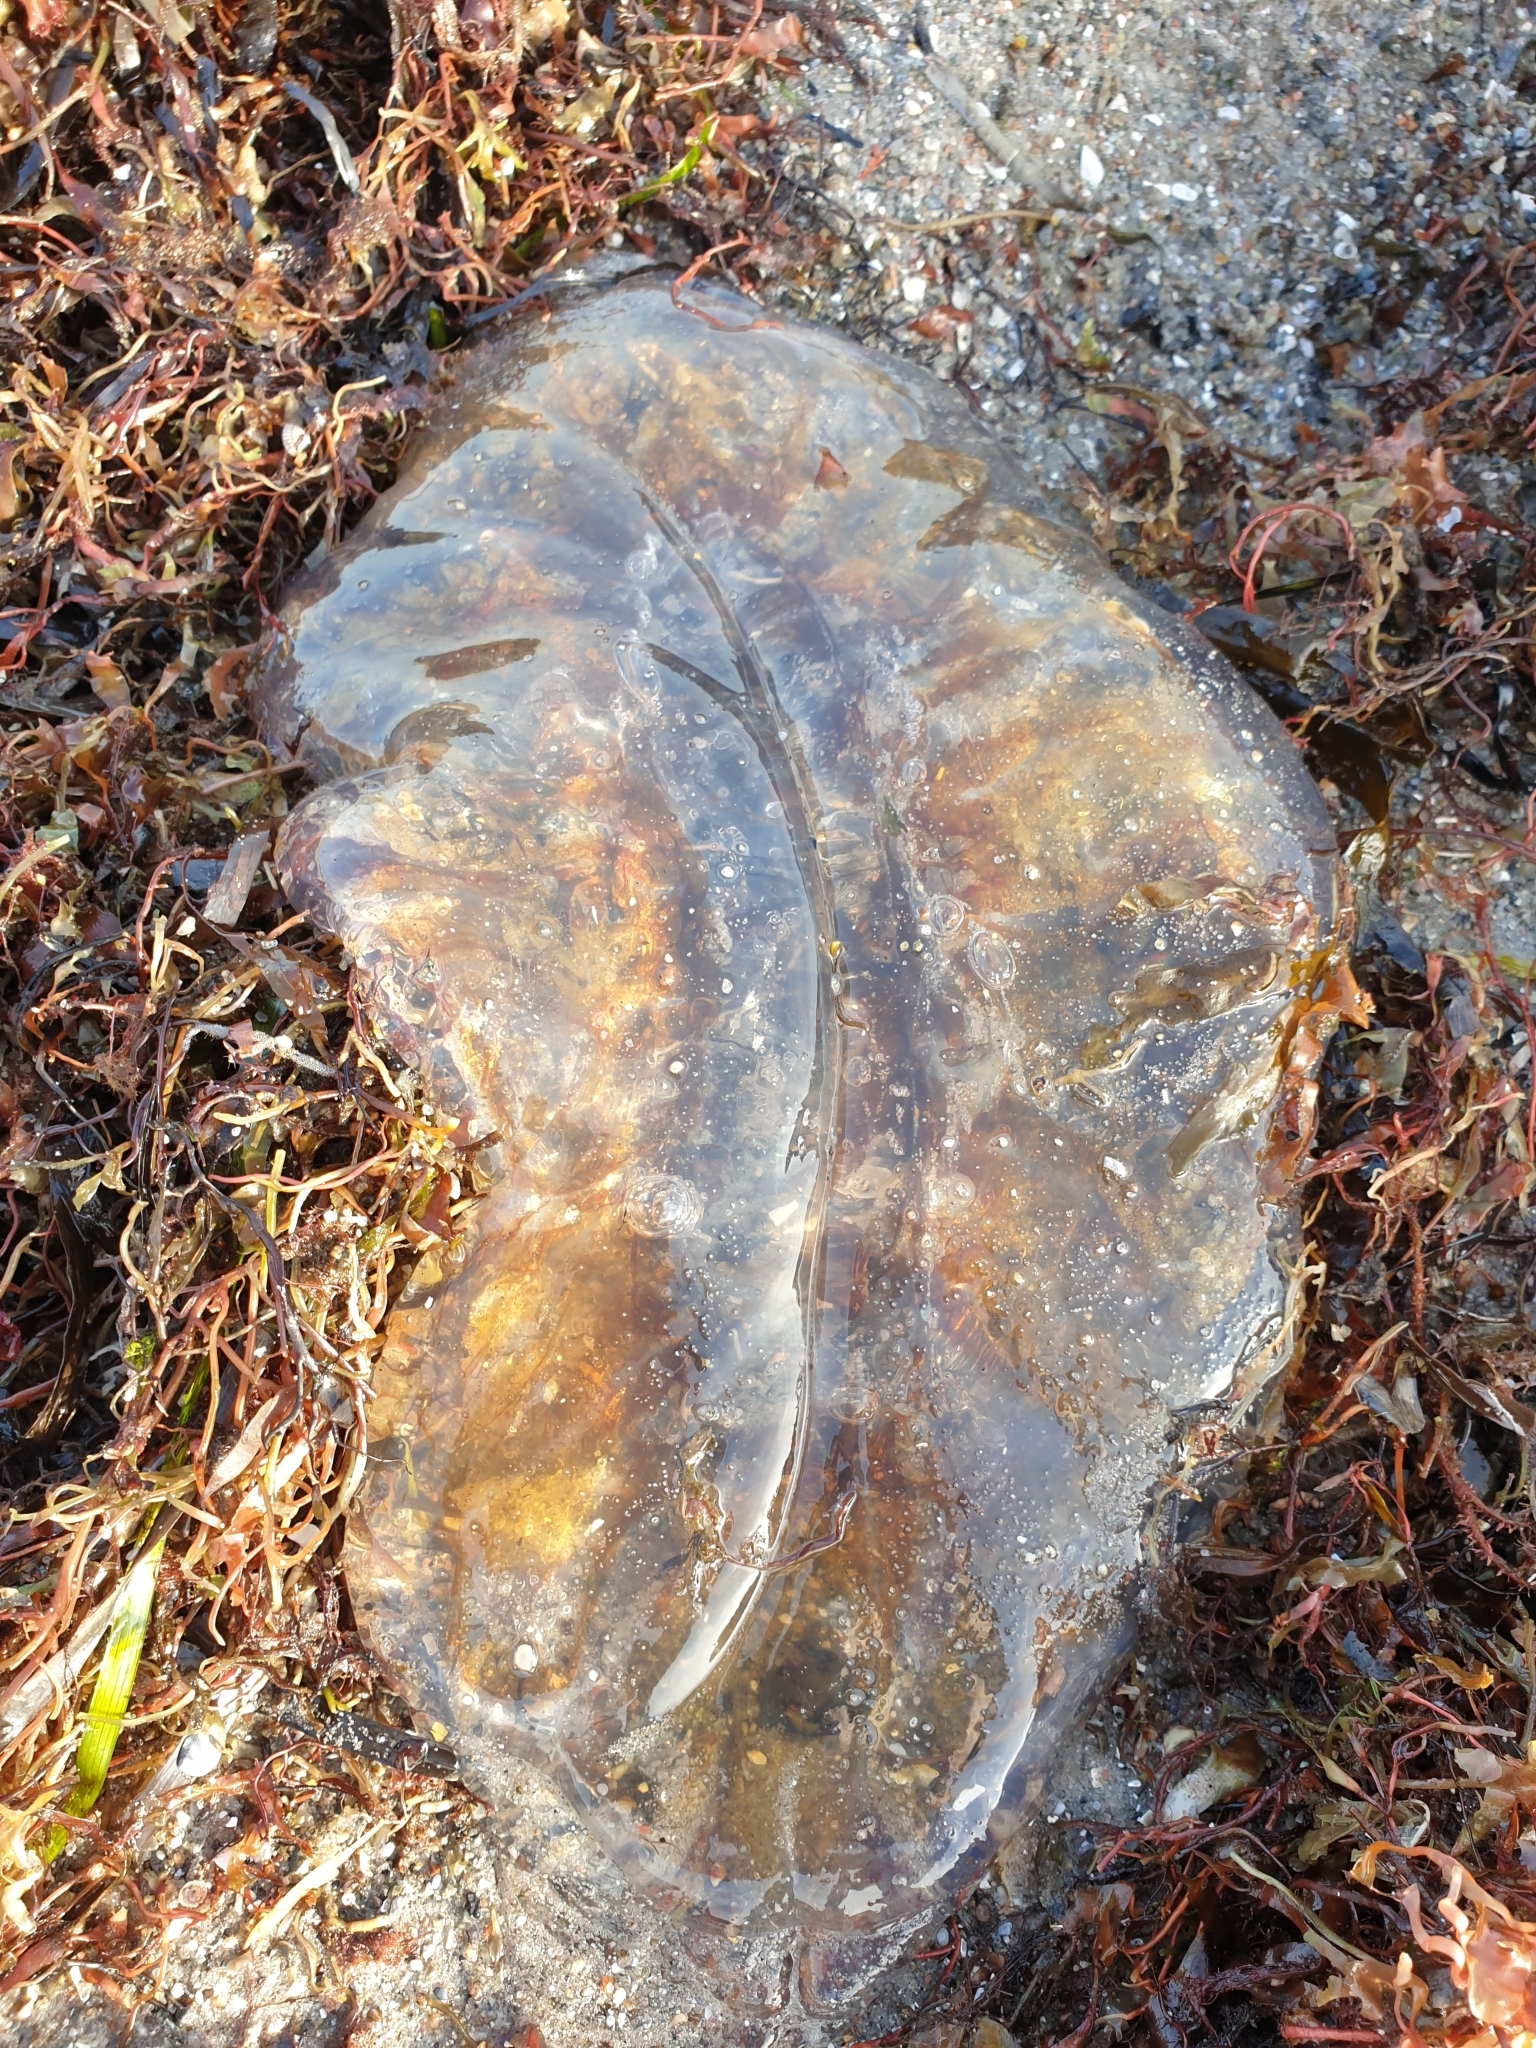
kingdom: Animalia
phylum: Cnidaria
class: Scyphozoa
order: Semaeostomeae
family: Cyaneidae
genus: Cyanea
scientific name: Cyanea capillata
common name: Lion's mane jellyfish
